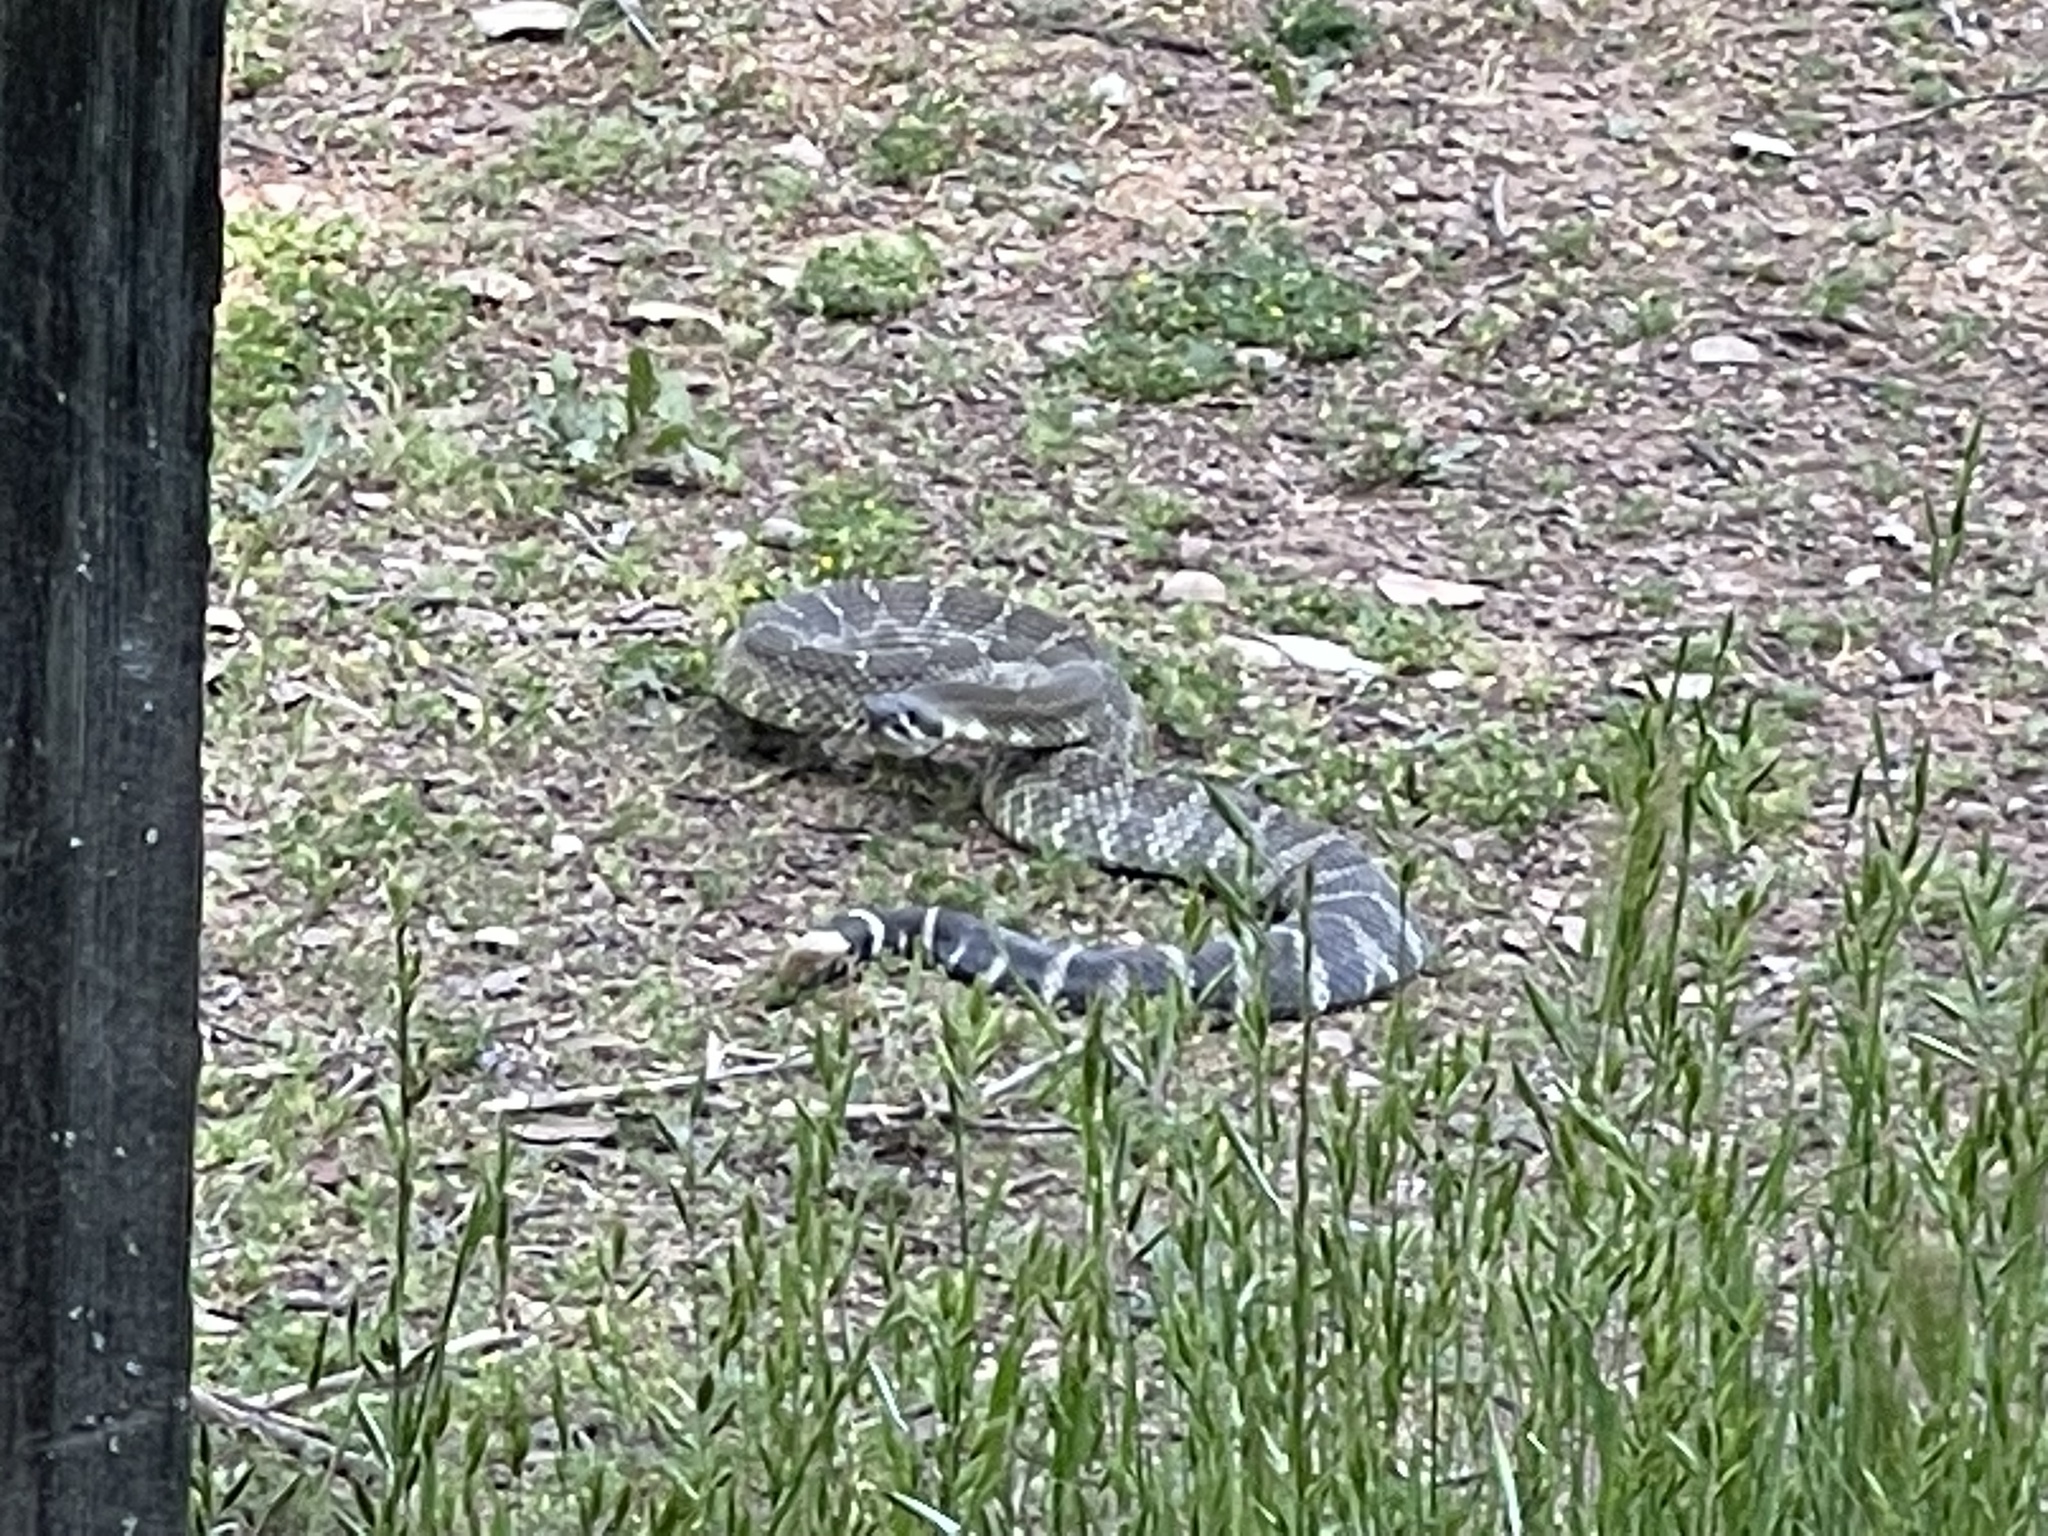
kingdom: Animalia
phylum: Chordata
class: Squamata
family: Viperidae
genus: Crotalus
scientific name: Crotalus oreganus
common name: Abyssus
